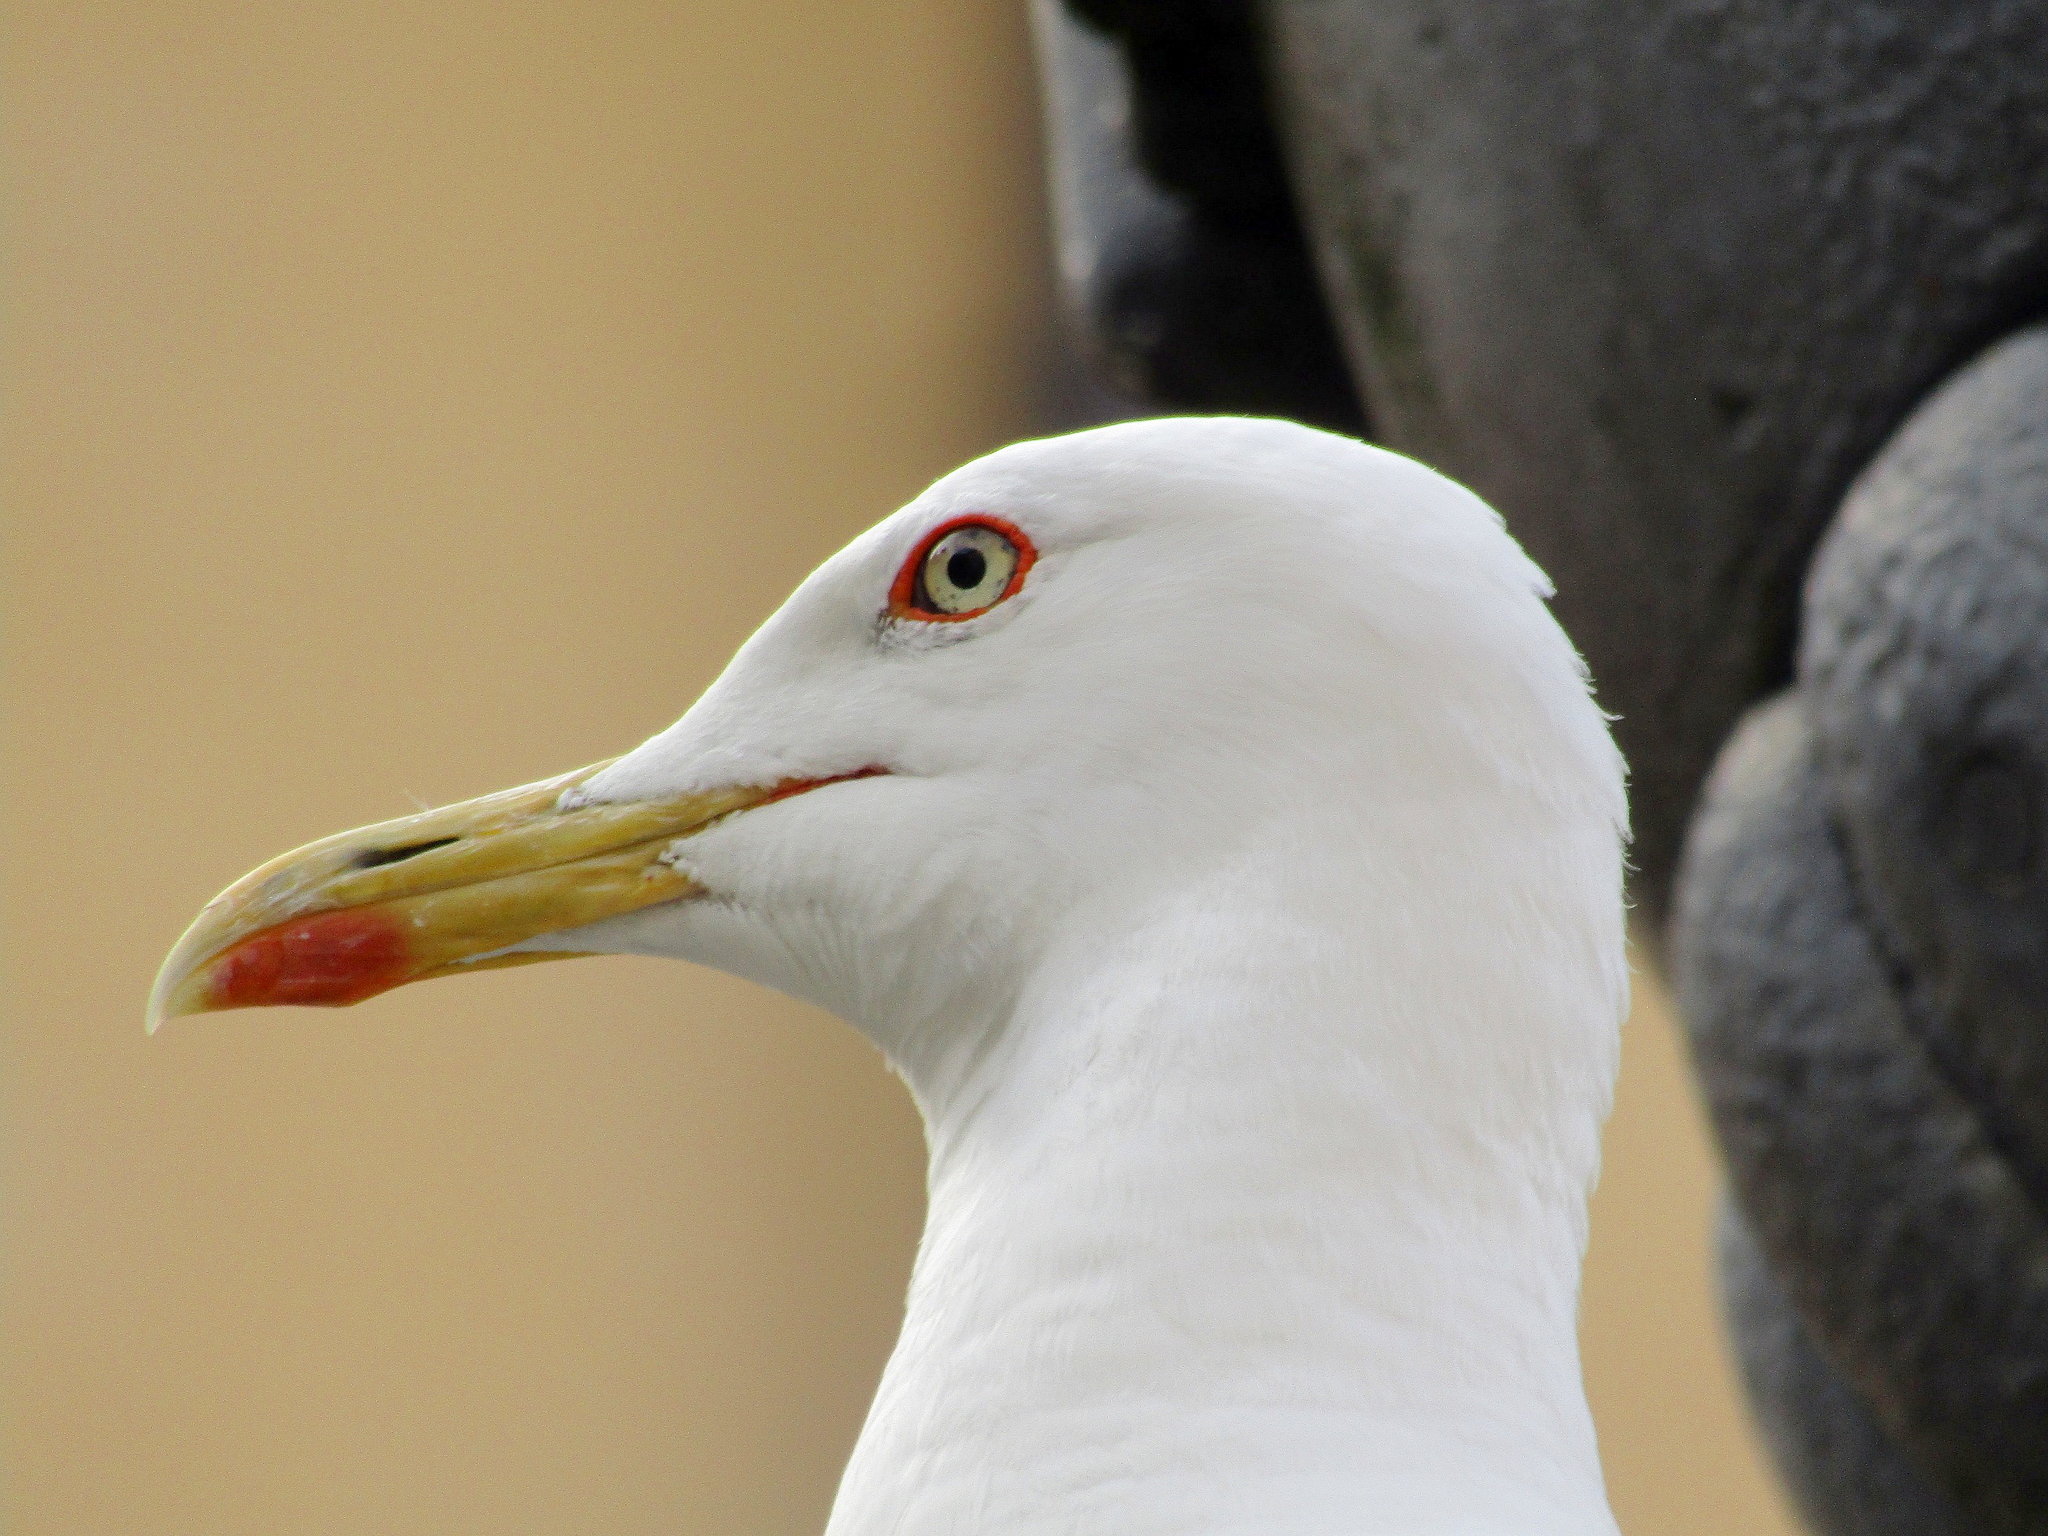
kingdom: Animalia
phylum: Chordata
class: Aves
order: Charadriiformes
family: Laridae
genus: Larus
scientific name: Larus fuscus
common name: Lesser black-backed gull
